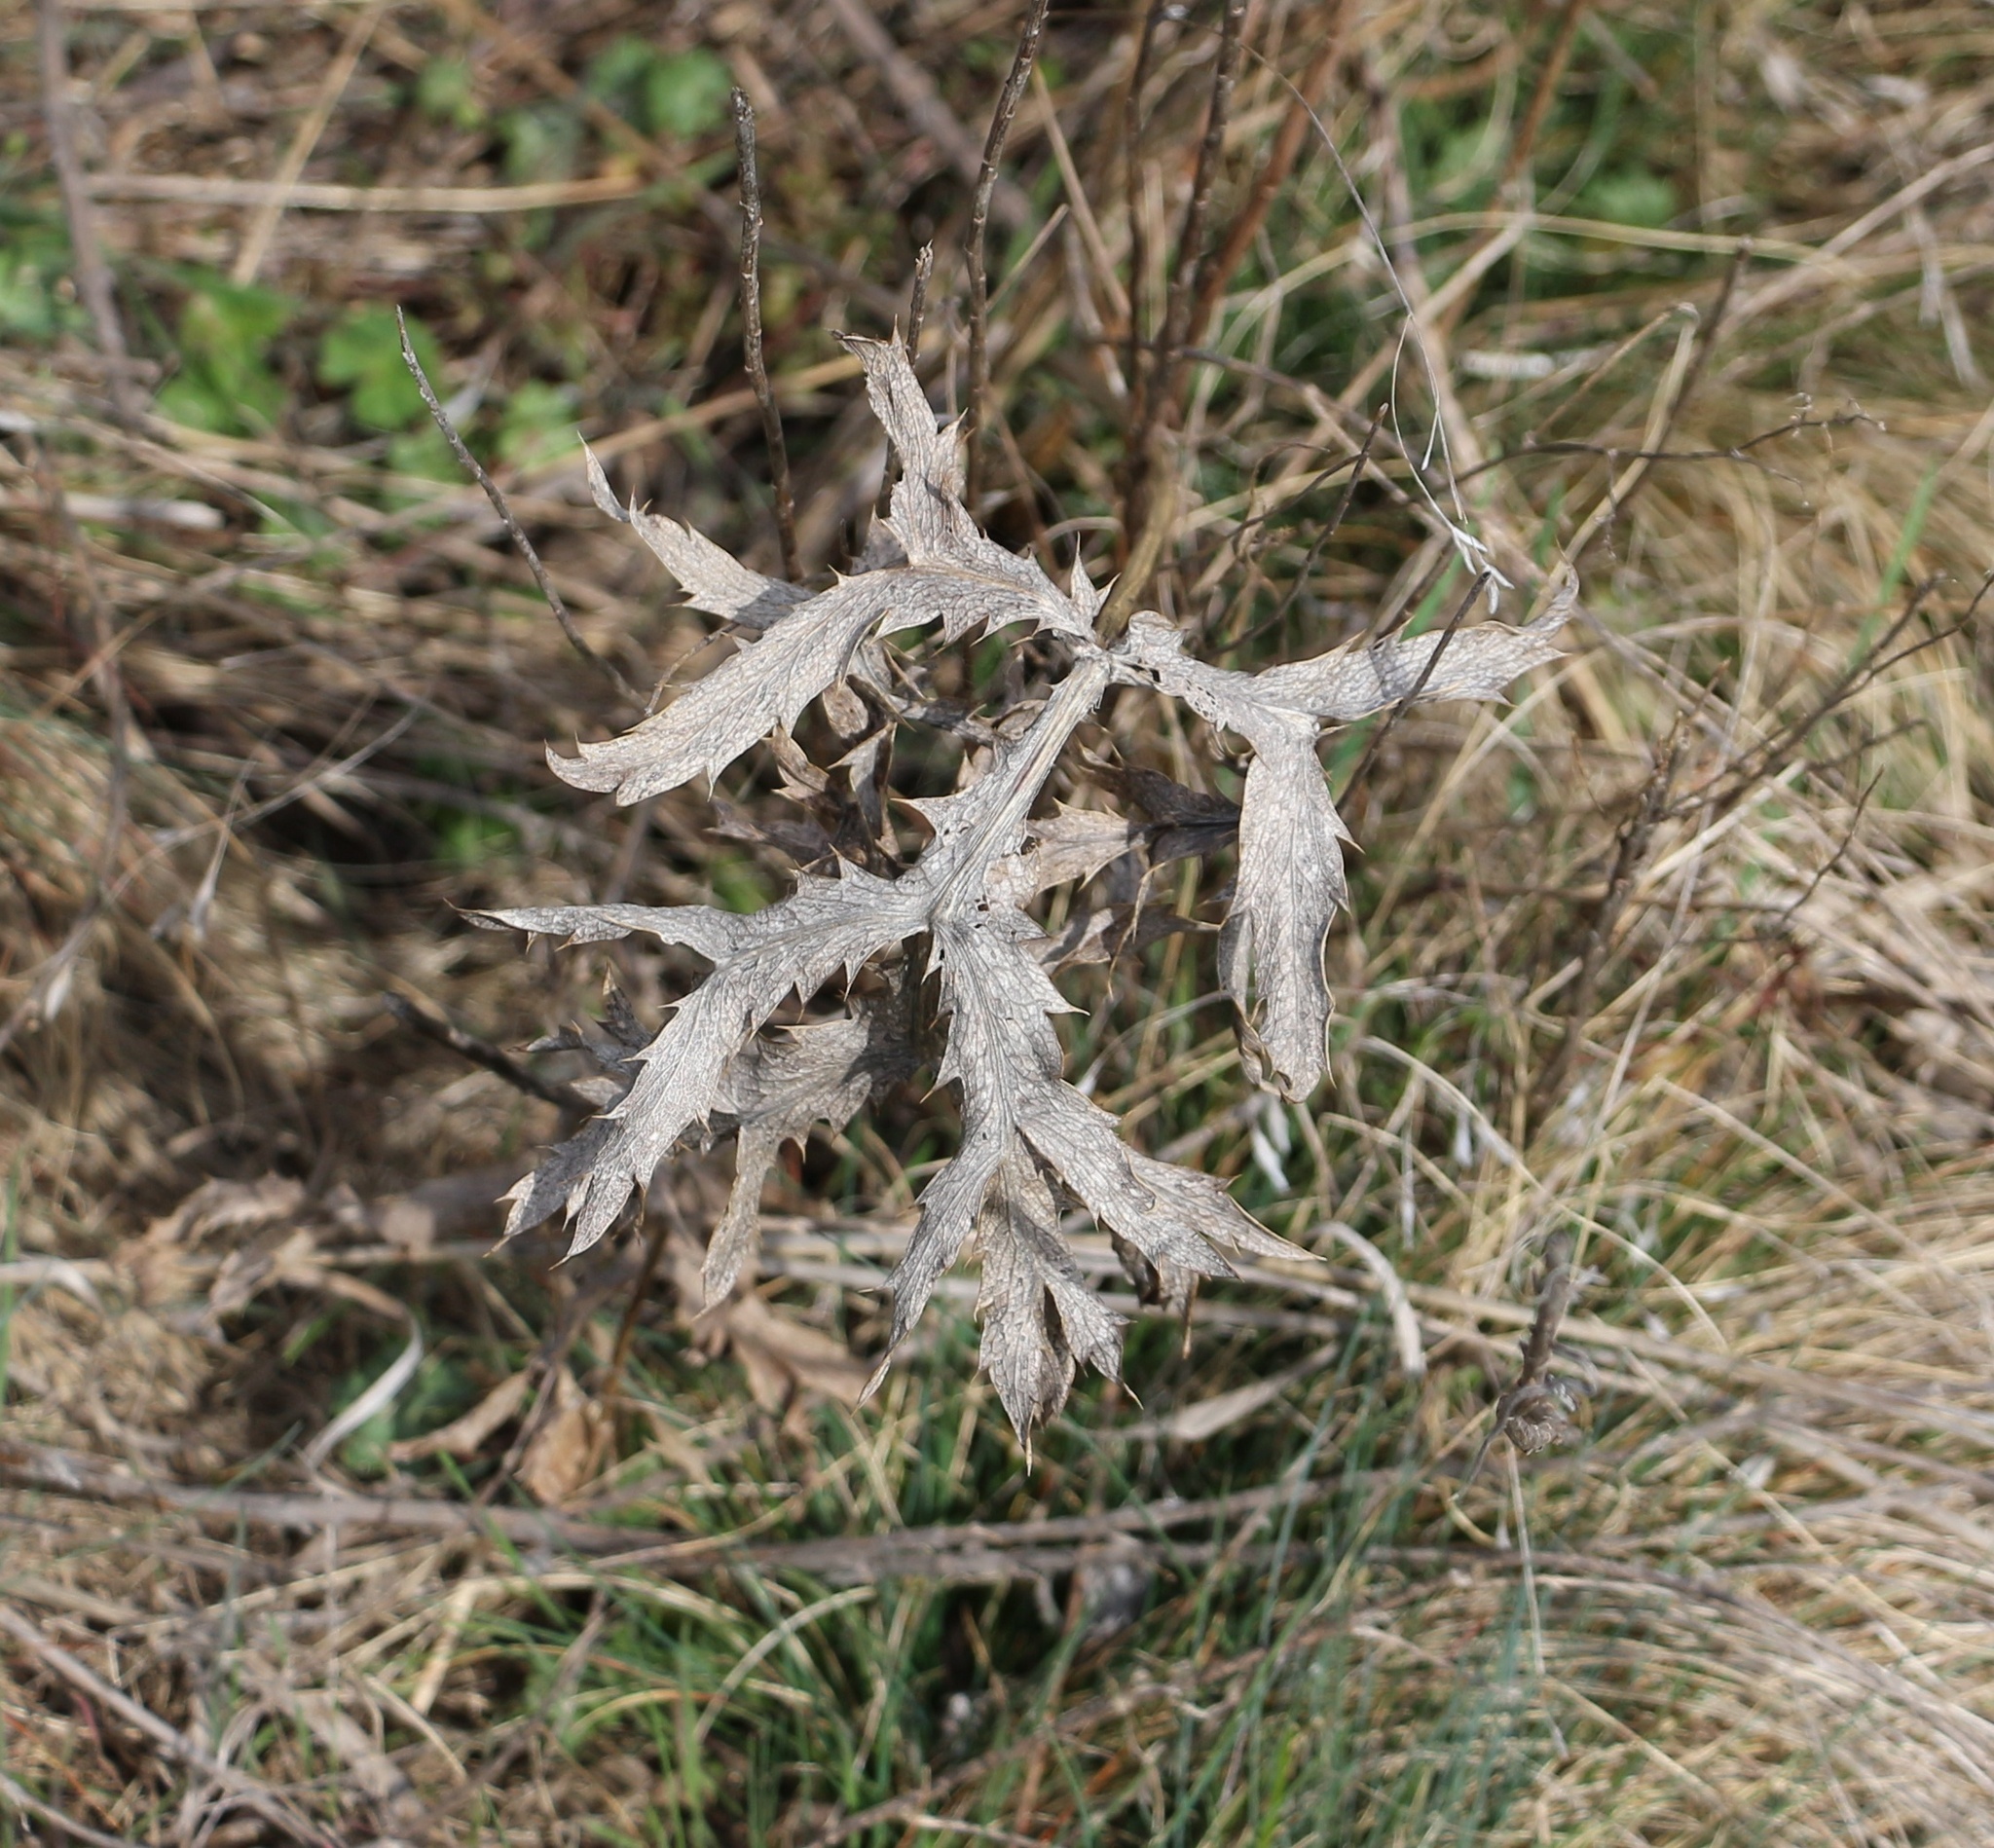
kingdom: Plantae
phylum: Tracheophyta
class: Magnoliopsida
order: Apiales
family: Apiaceae
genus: Eryngium
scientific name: Eryngium campestre
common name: Field eryngo
